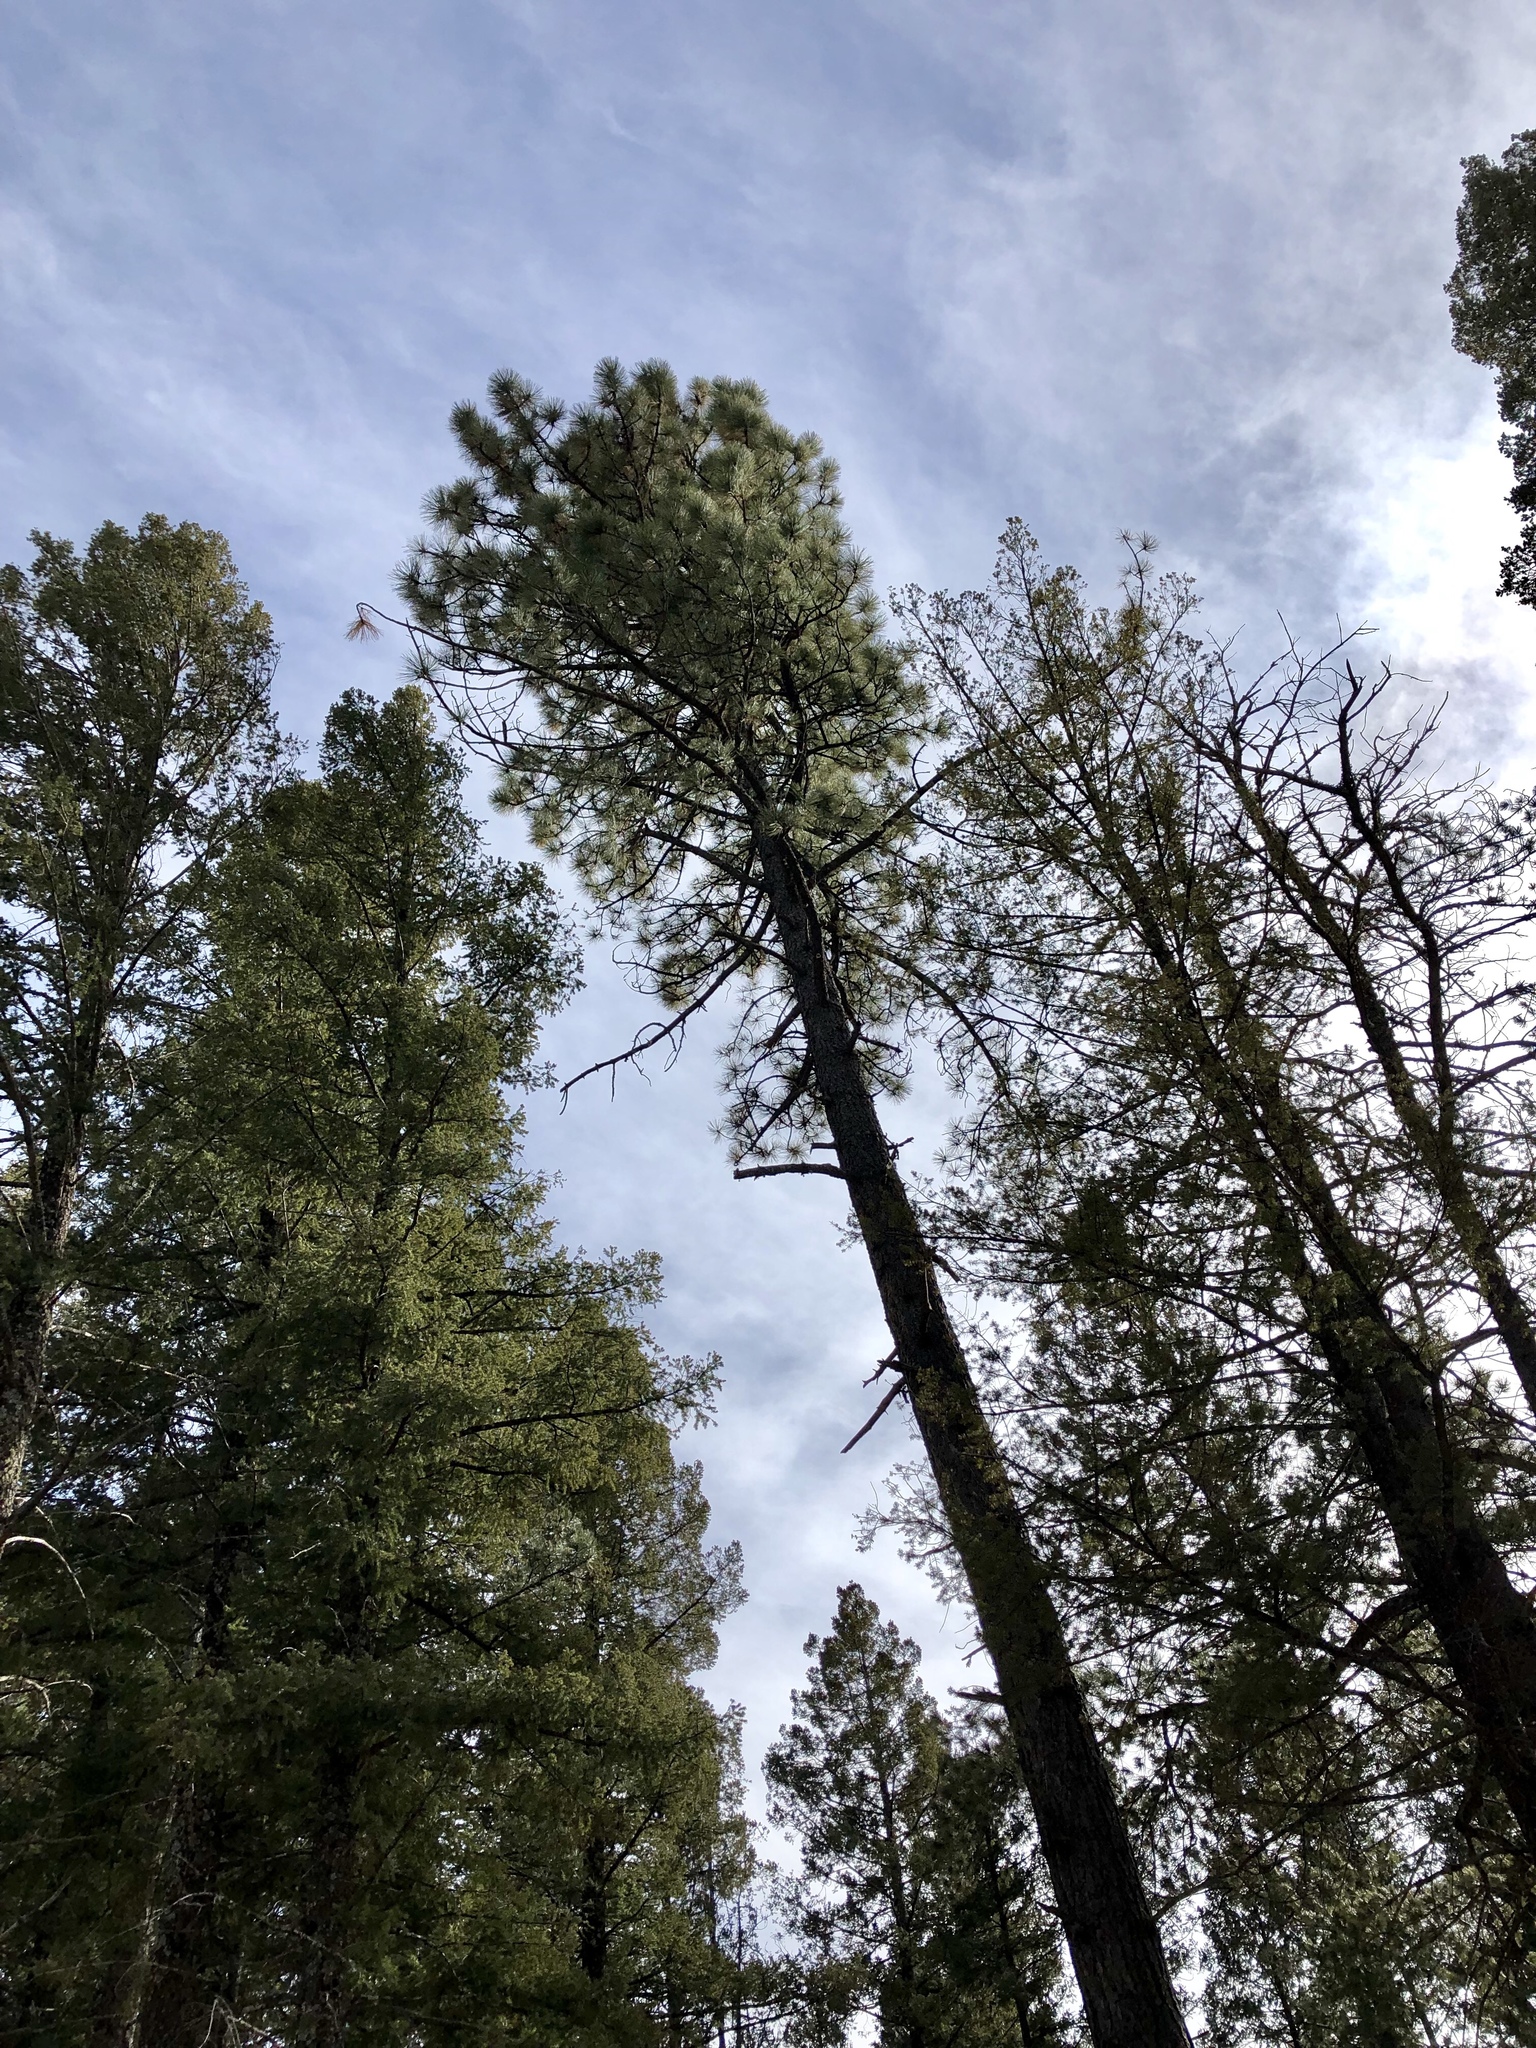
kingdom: Plantae
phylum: Tracheophyta
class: Pinopsida
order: Pinales
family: Pinaceae
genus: Pinus
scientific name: Pinus ponderosa
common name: Western yellow-pine
